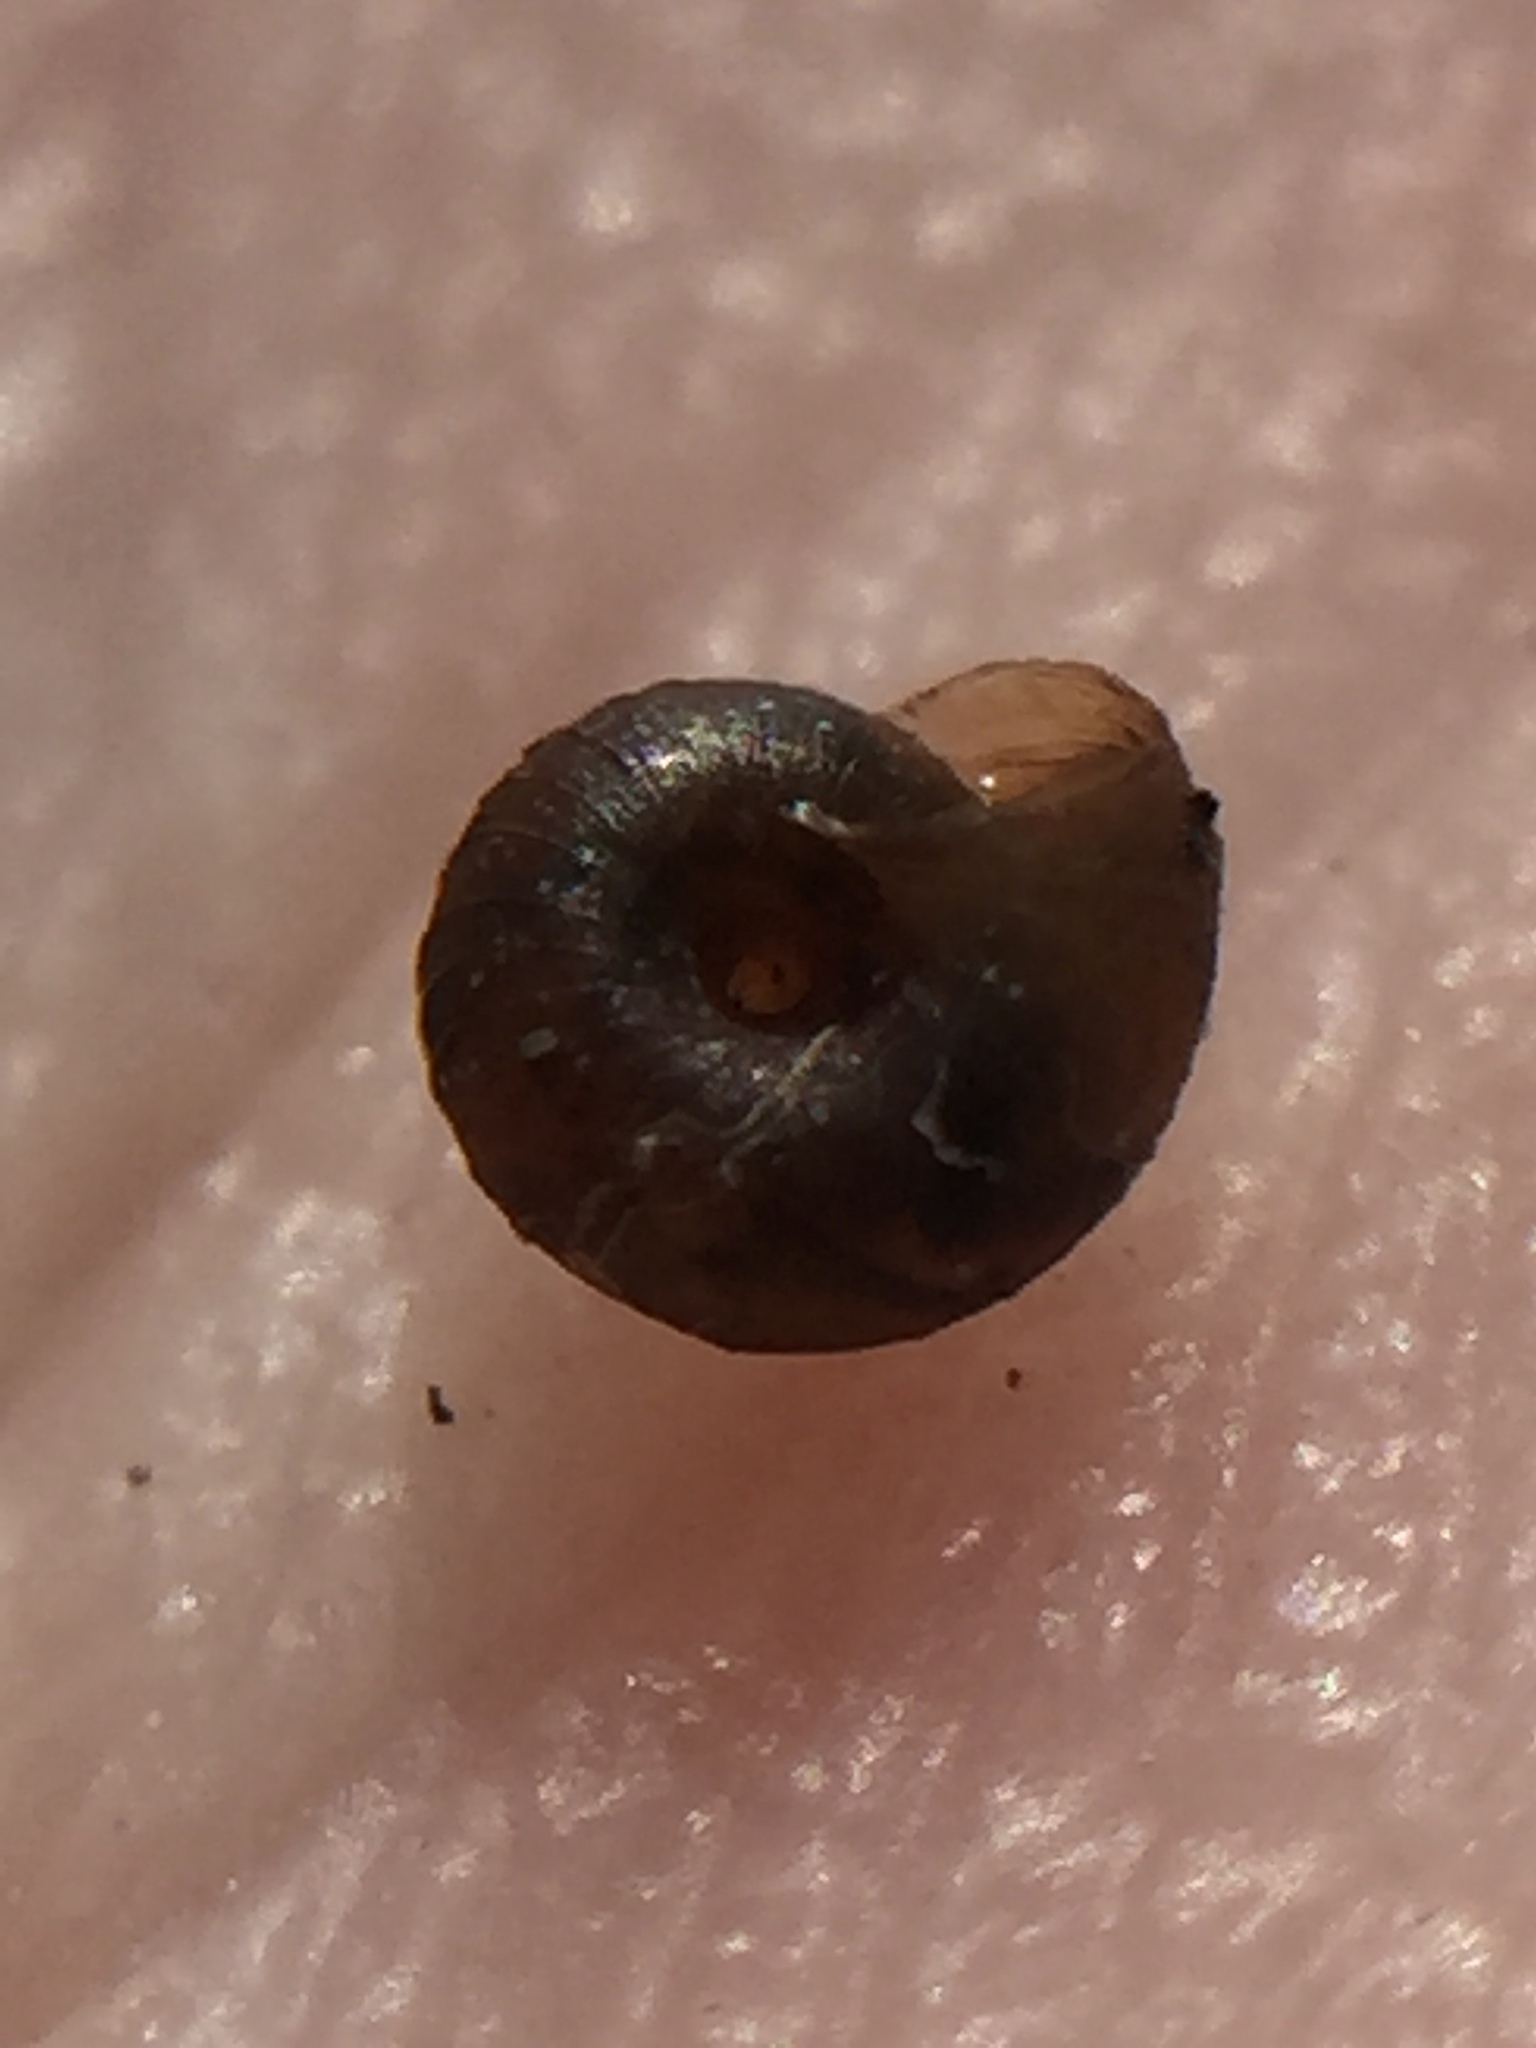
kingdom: Animalia
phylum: Mollusca
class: Gastropoda
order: Stylommatophora
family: Punctidae
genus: Paralaoma
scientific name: Paralaoma servilis
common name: Pinhead spot
